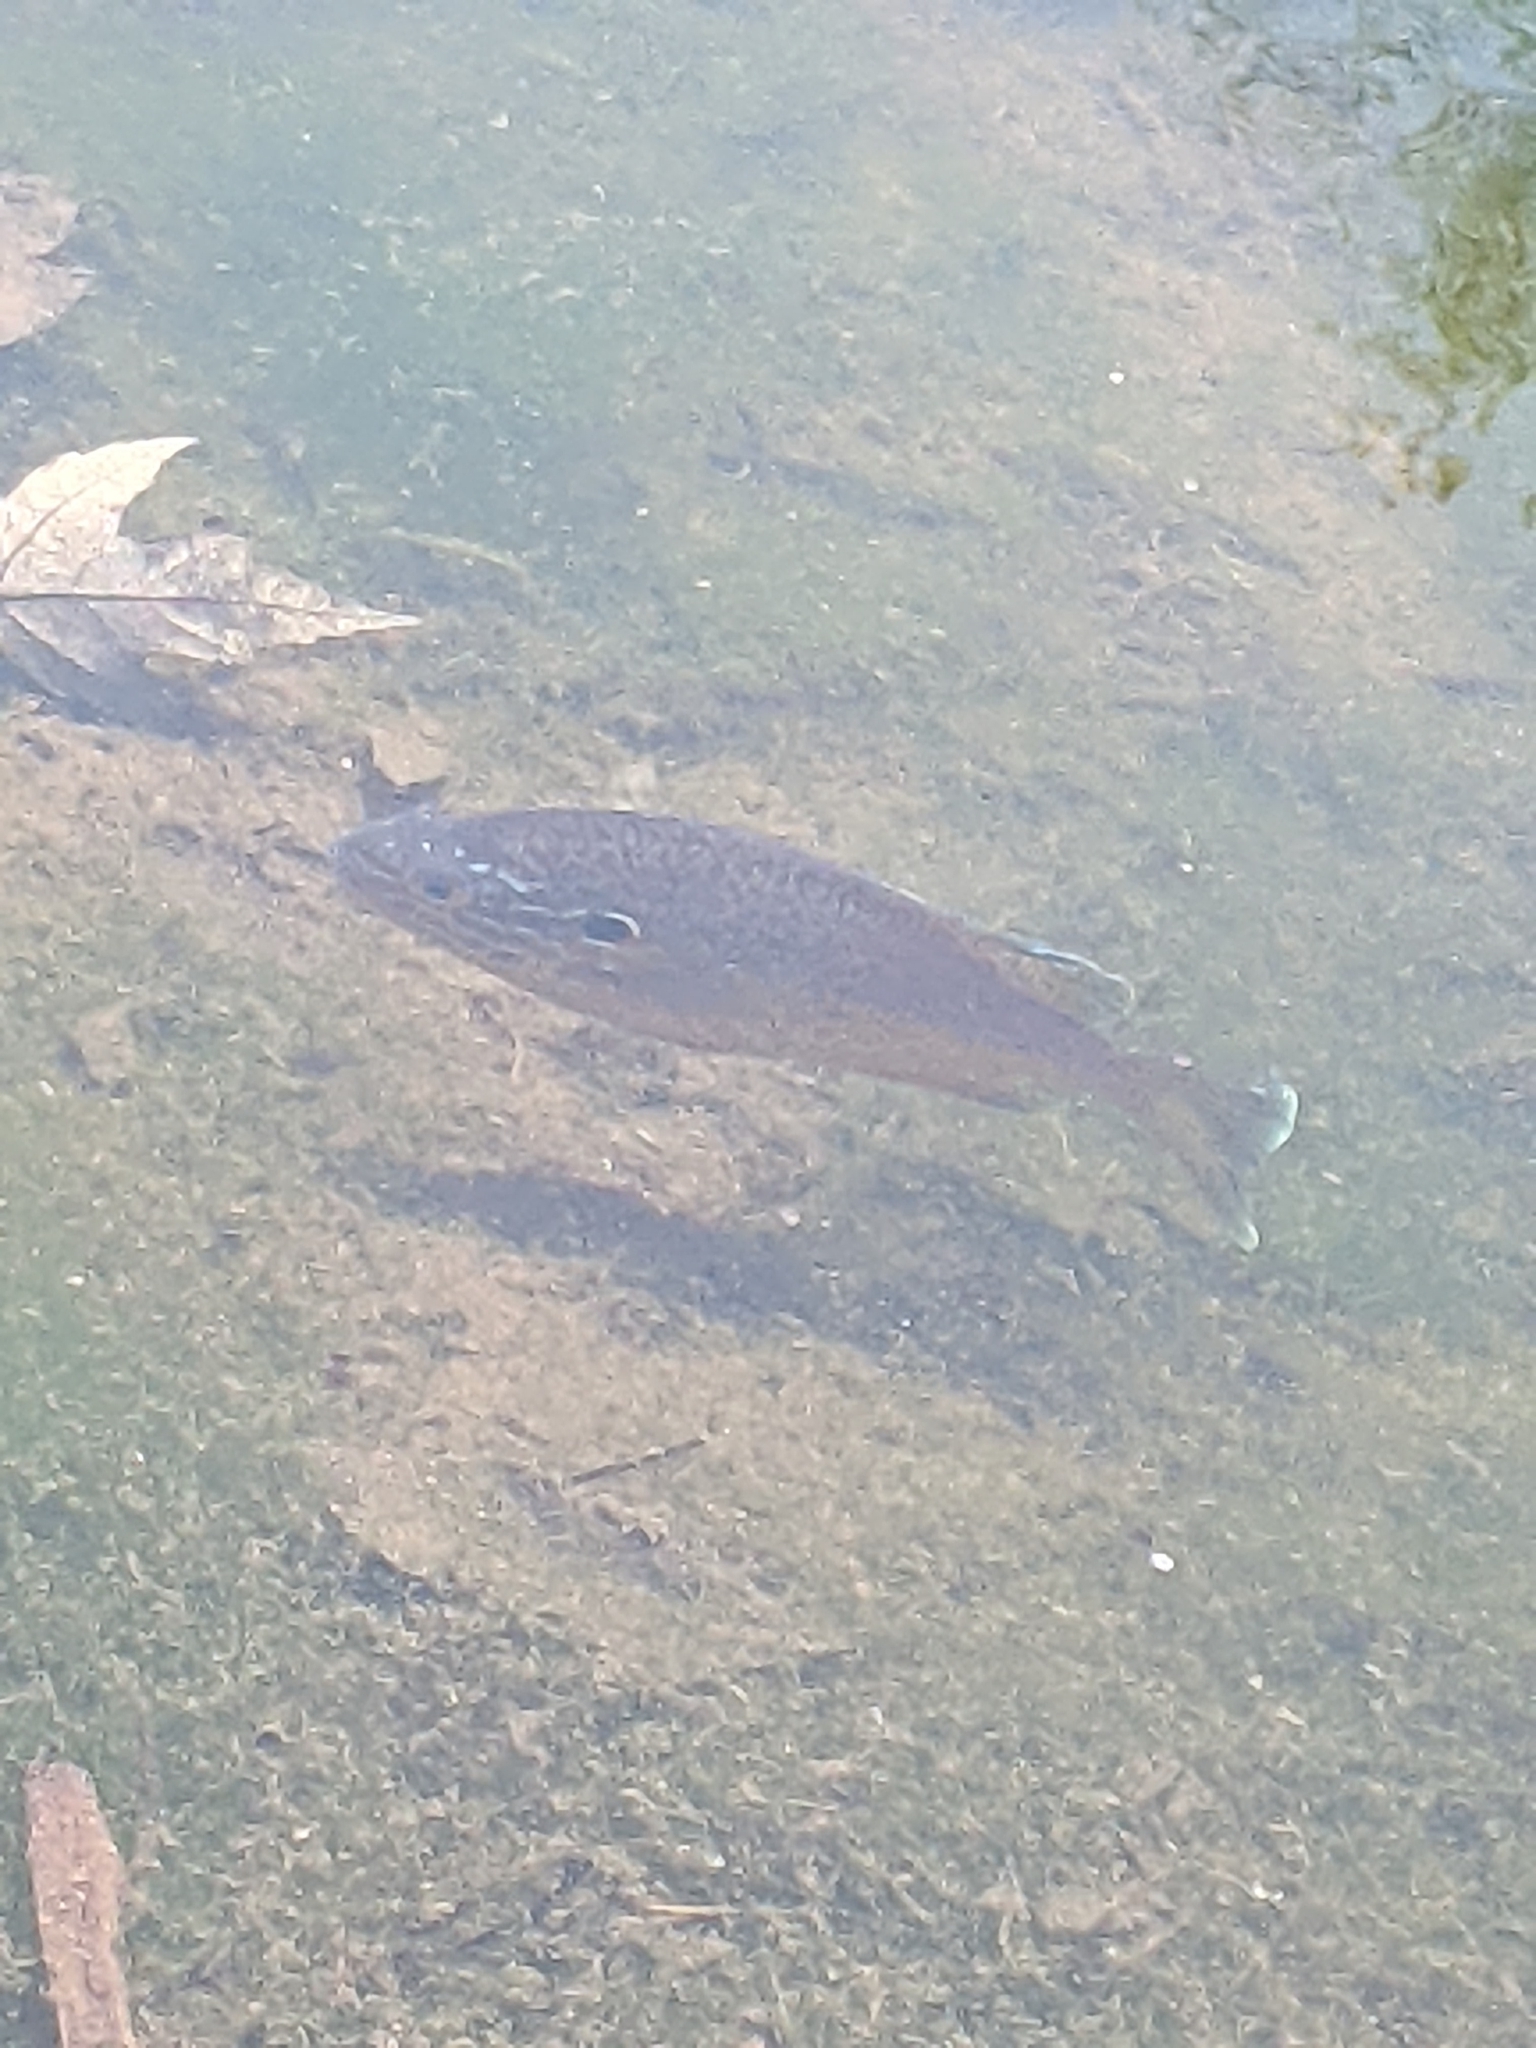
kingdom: Animalia
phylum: Chordata
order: Perciformes
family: Centrarchidae
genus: Lepomis
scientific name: Lepomis gibbosus
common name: Pumpkinseed
